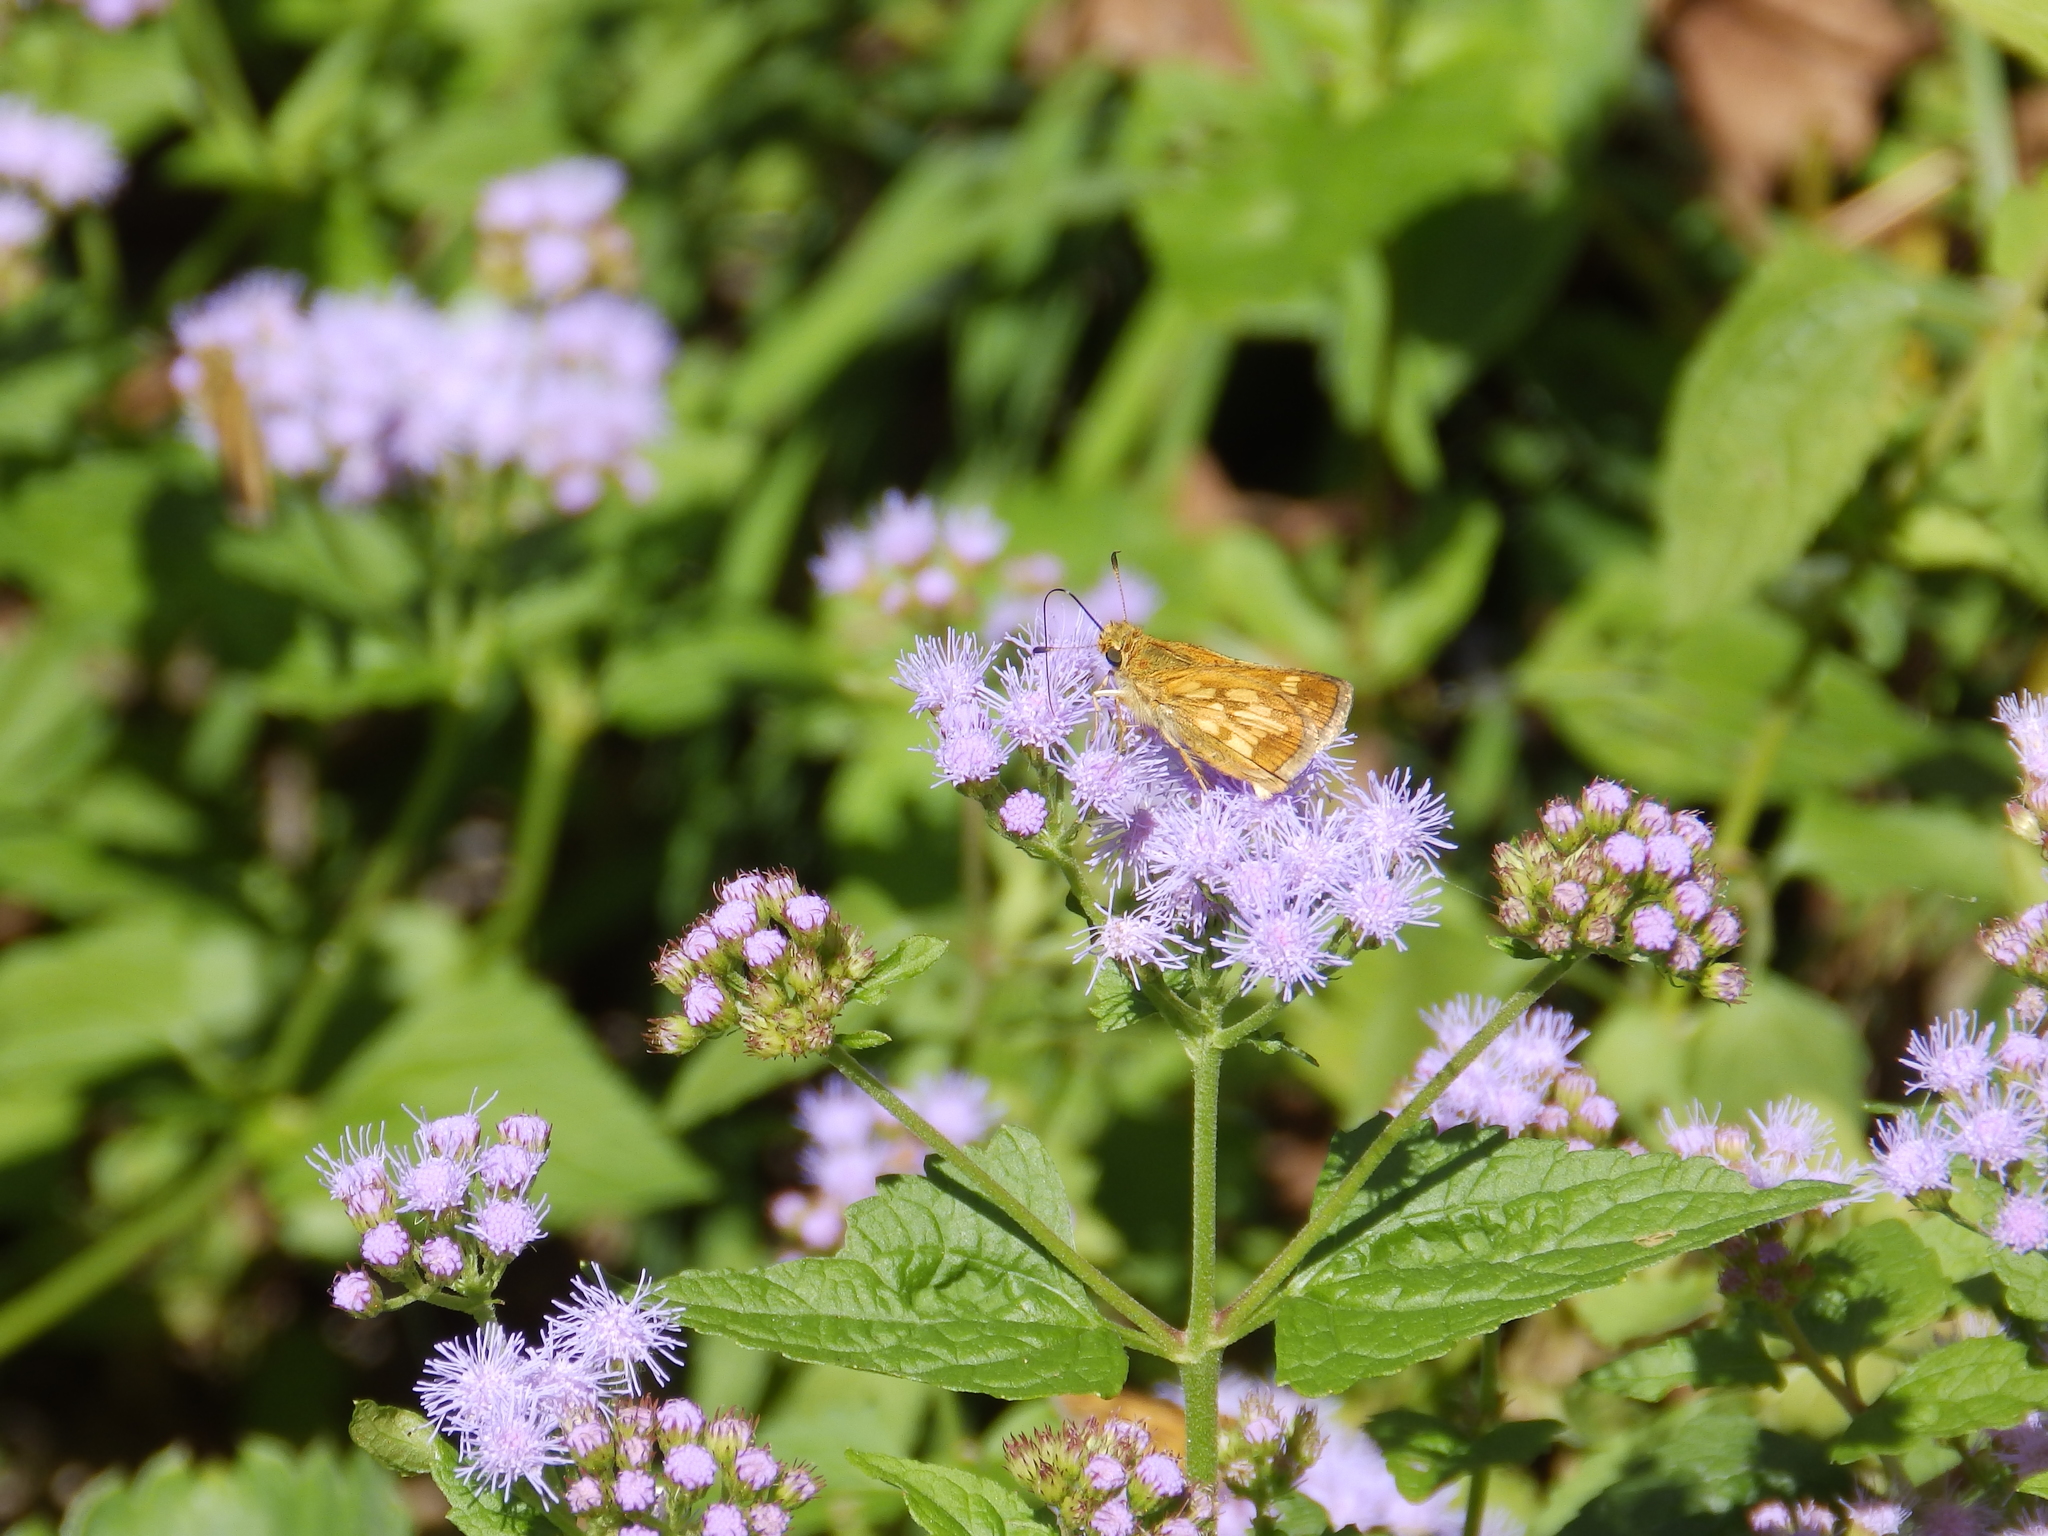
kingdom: Animalia
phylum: Arthropoda
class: Insecta
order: Lepidoptera
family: Hesperiidae
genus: Polites
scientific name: Polites coras
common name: Peck's skipper
